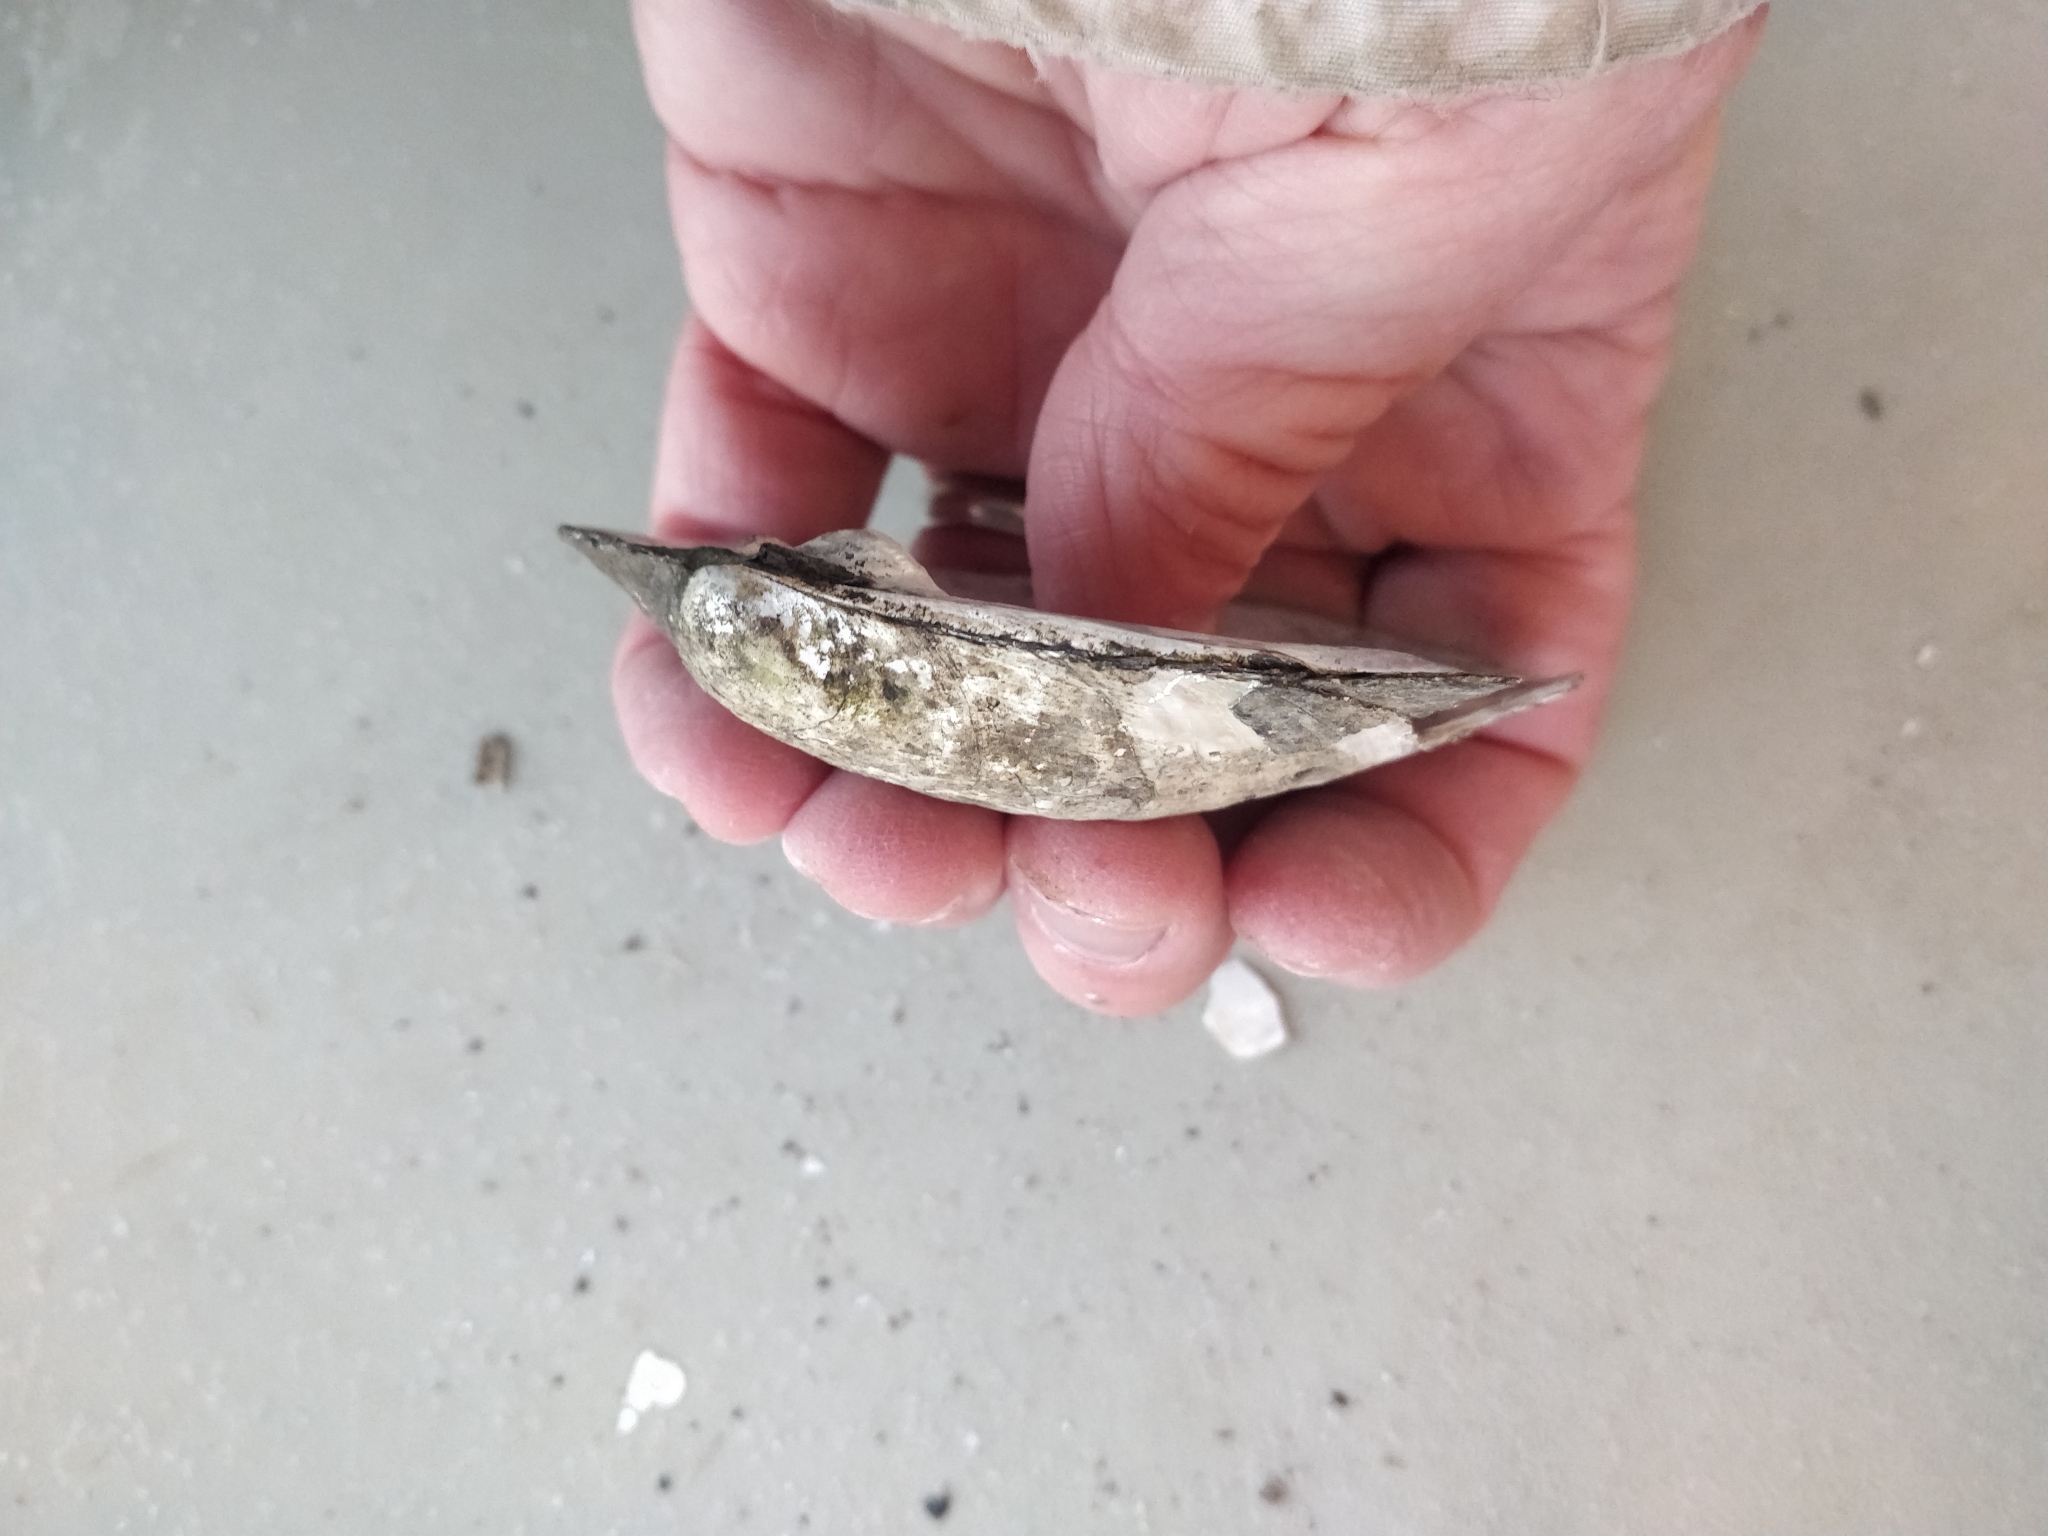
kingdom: Animalia
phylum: Mollusca
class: Bivalvia
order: Unionida
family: Unionidae
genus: Amblema
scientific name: Amblema plicata
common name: Threeridge
